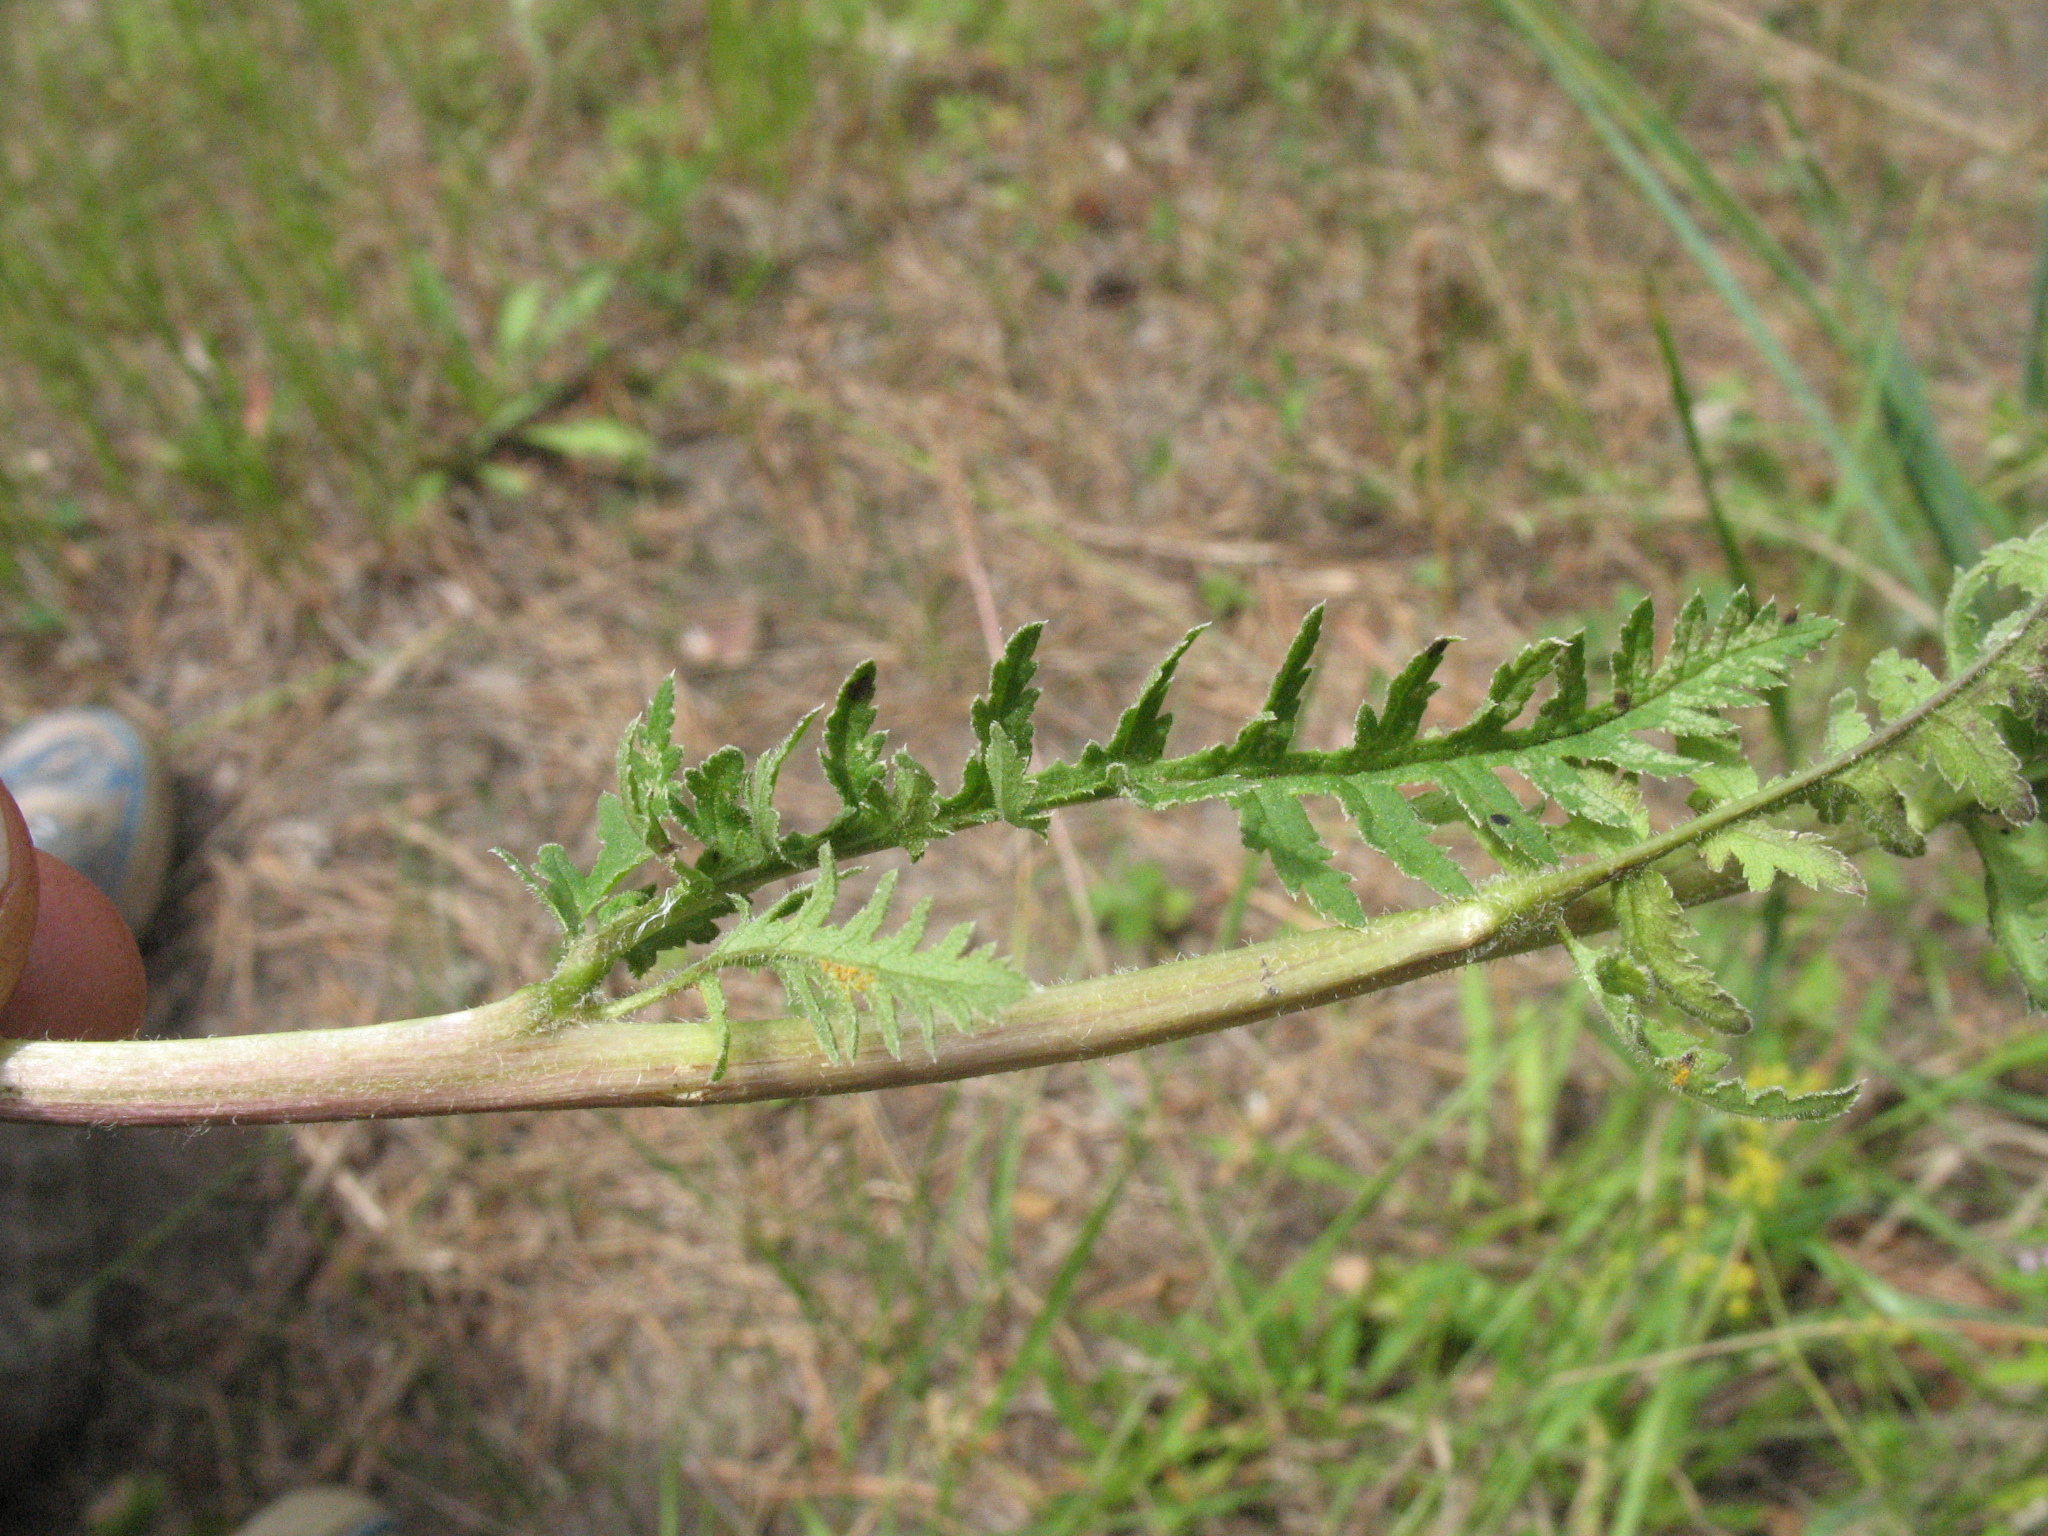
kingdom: Plantae
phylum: Tracheophyta
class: Magnoliopsida
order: Lamiales
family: Orobanchaceae
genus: Pedicularis
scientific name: Pedicularis kaufmannii
